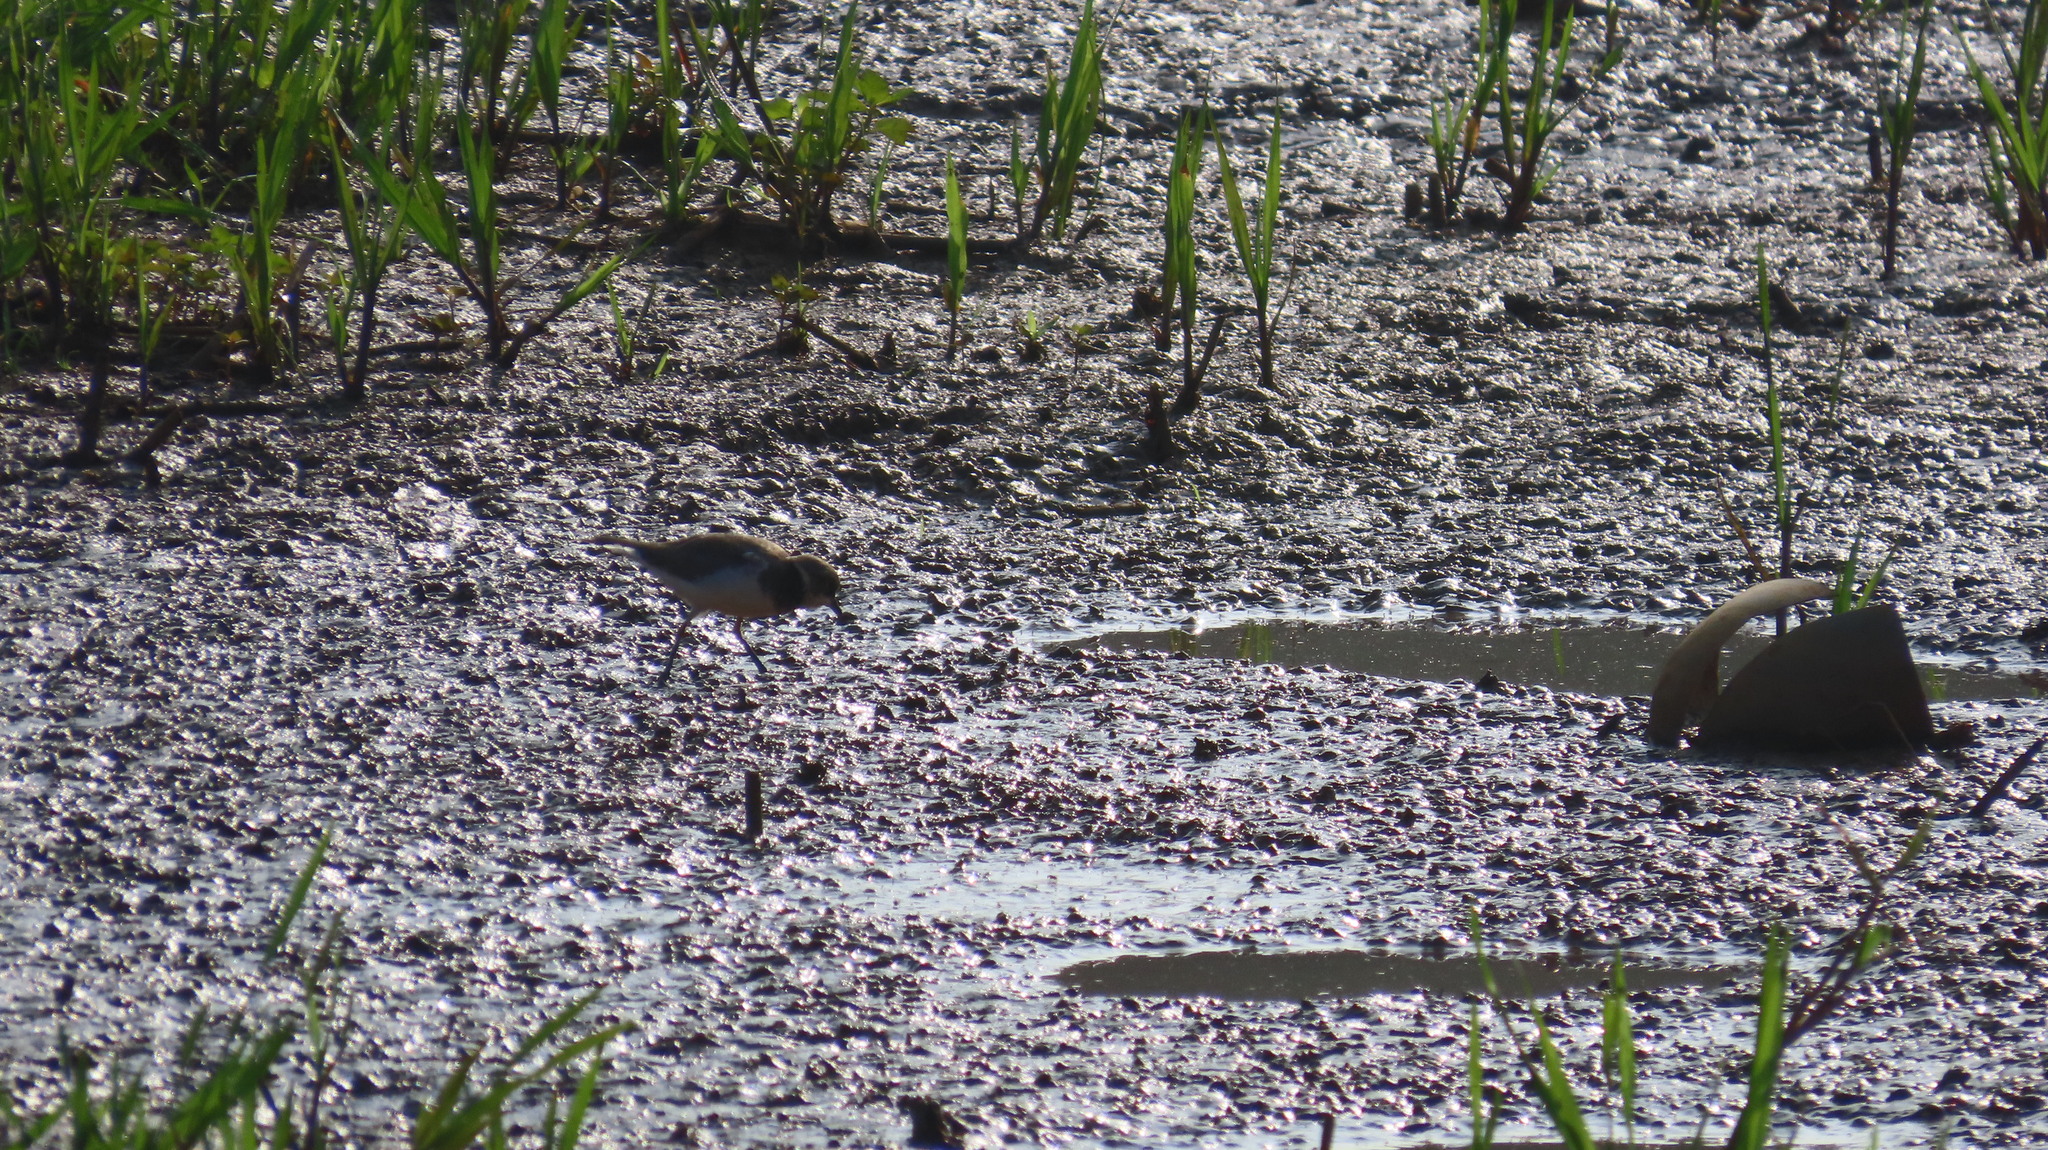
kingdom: Animalia
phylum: Chordata
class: Aves
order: Charadriiformes
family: Charadriidae
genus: Charadrius
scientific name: Charadrius dubius
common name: Little ringed plover
